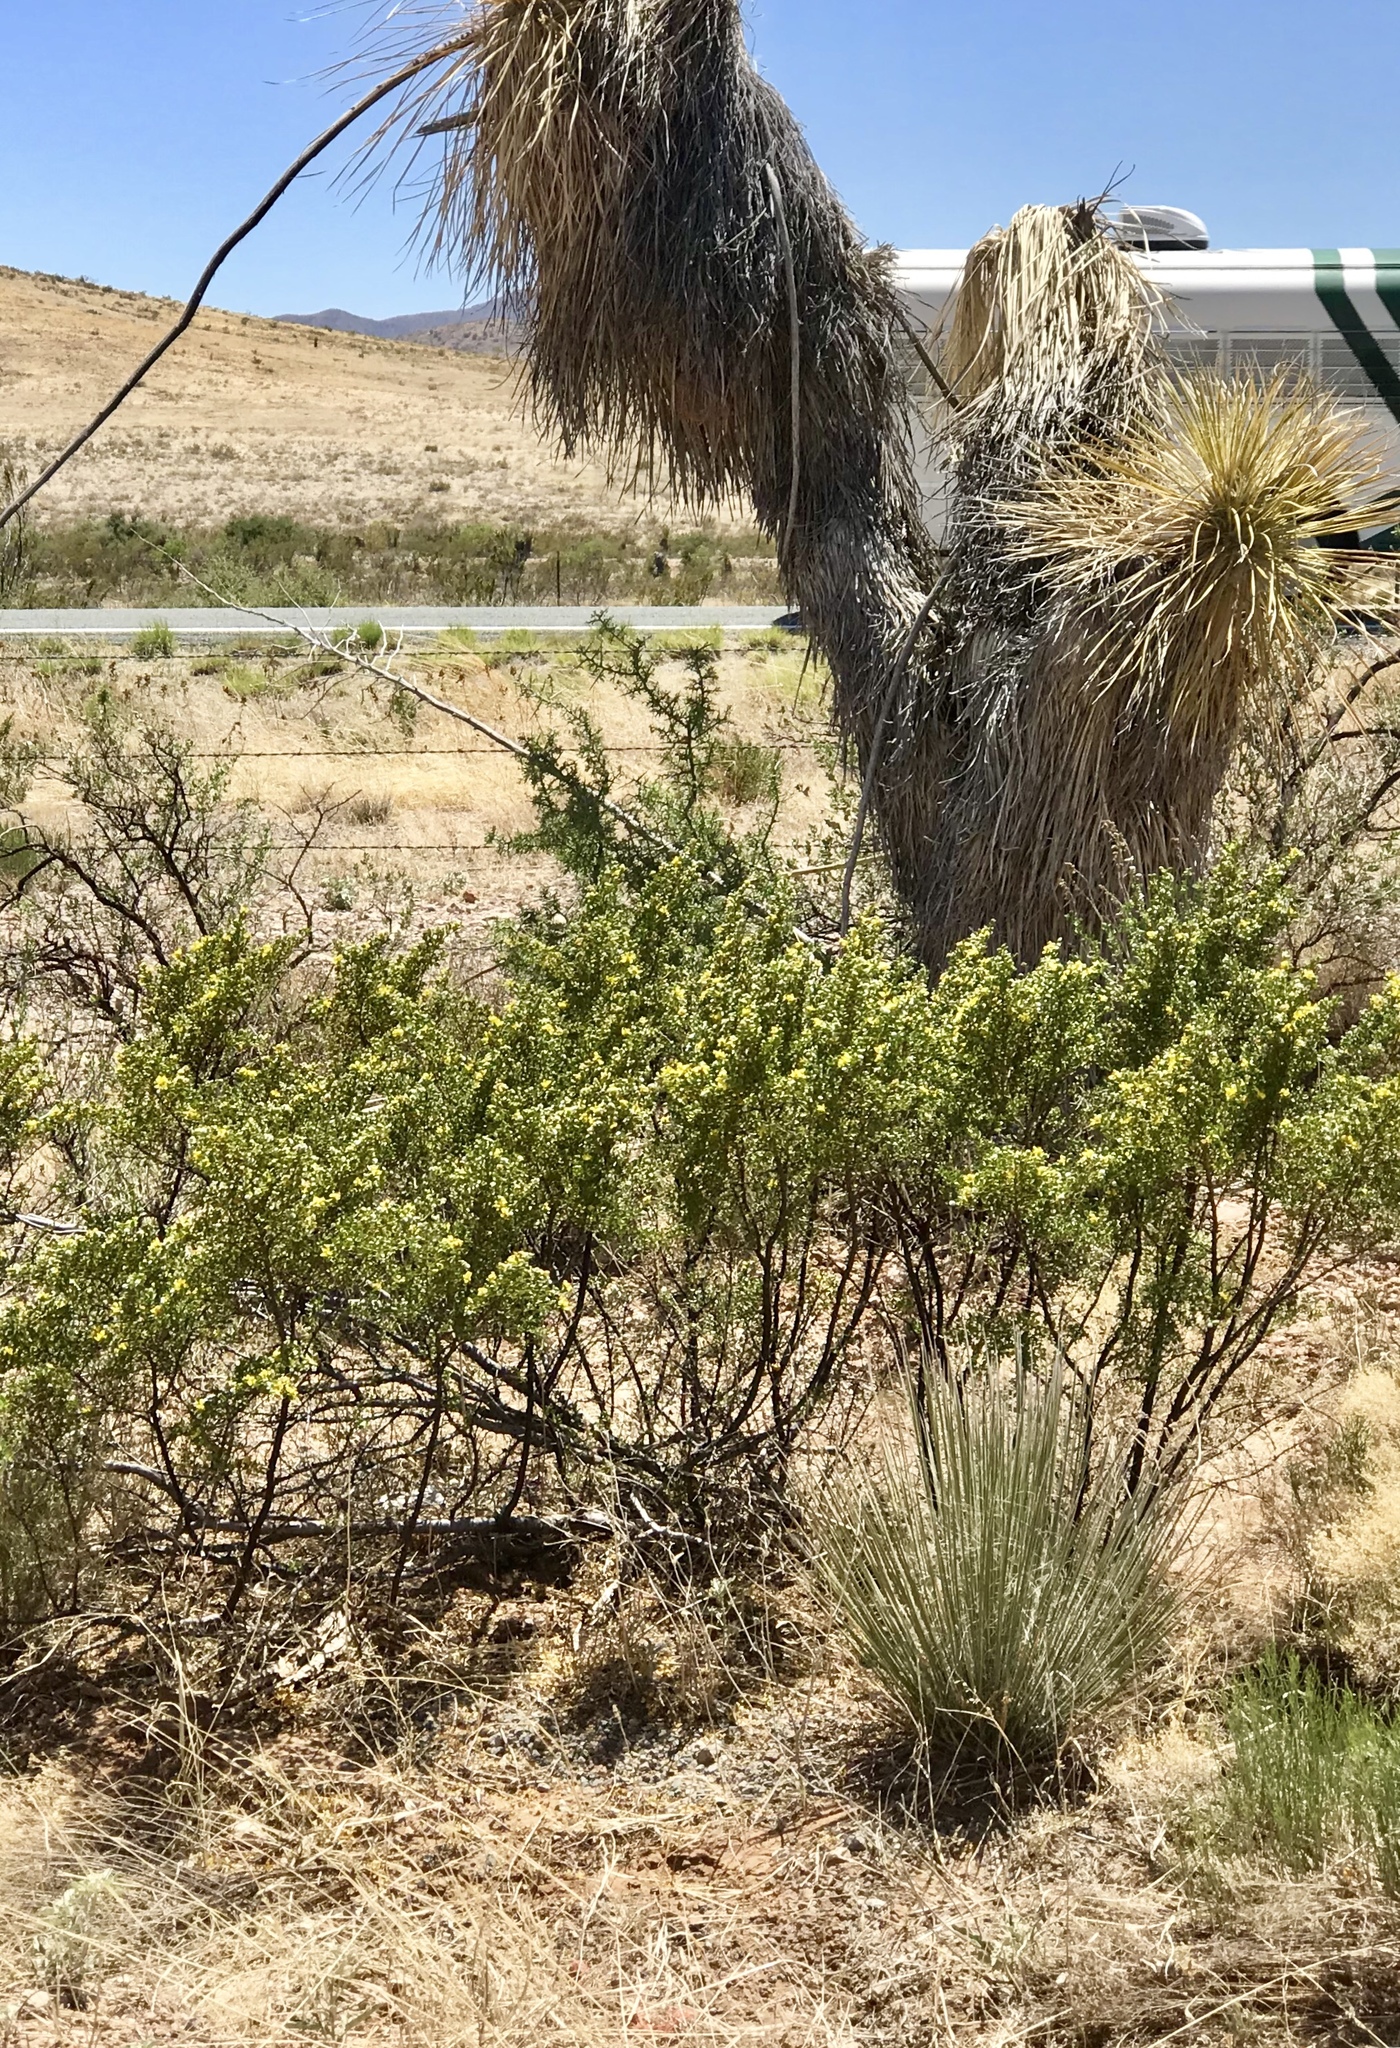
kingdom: Plantae
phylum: Tracheophyta
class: Magnoliopsida
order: Zygophyllales
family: Zygophyllaceae
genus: Larrea
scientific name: Larrea tridentata
